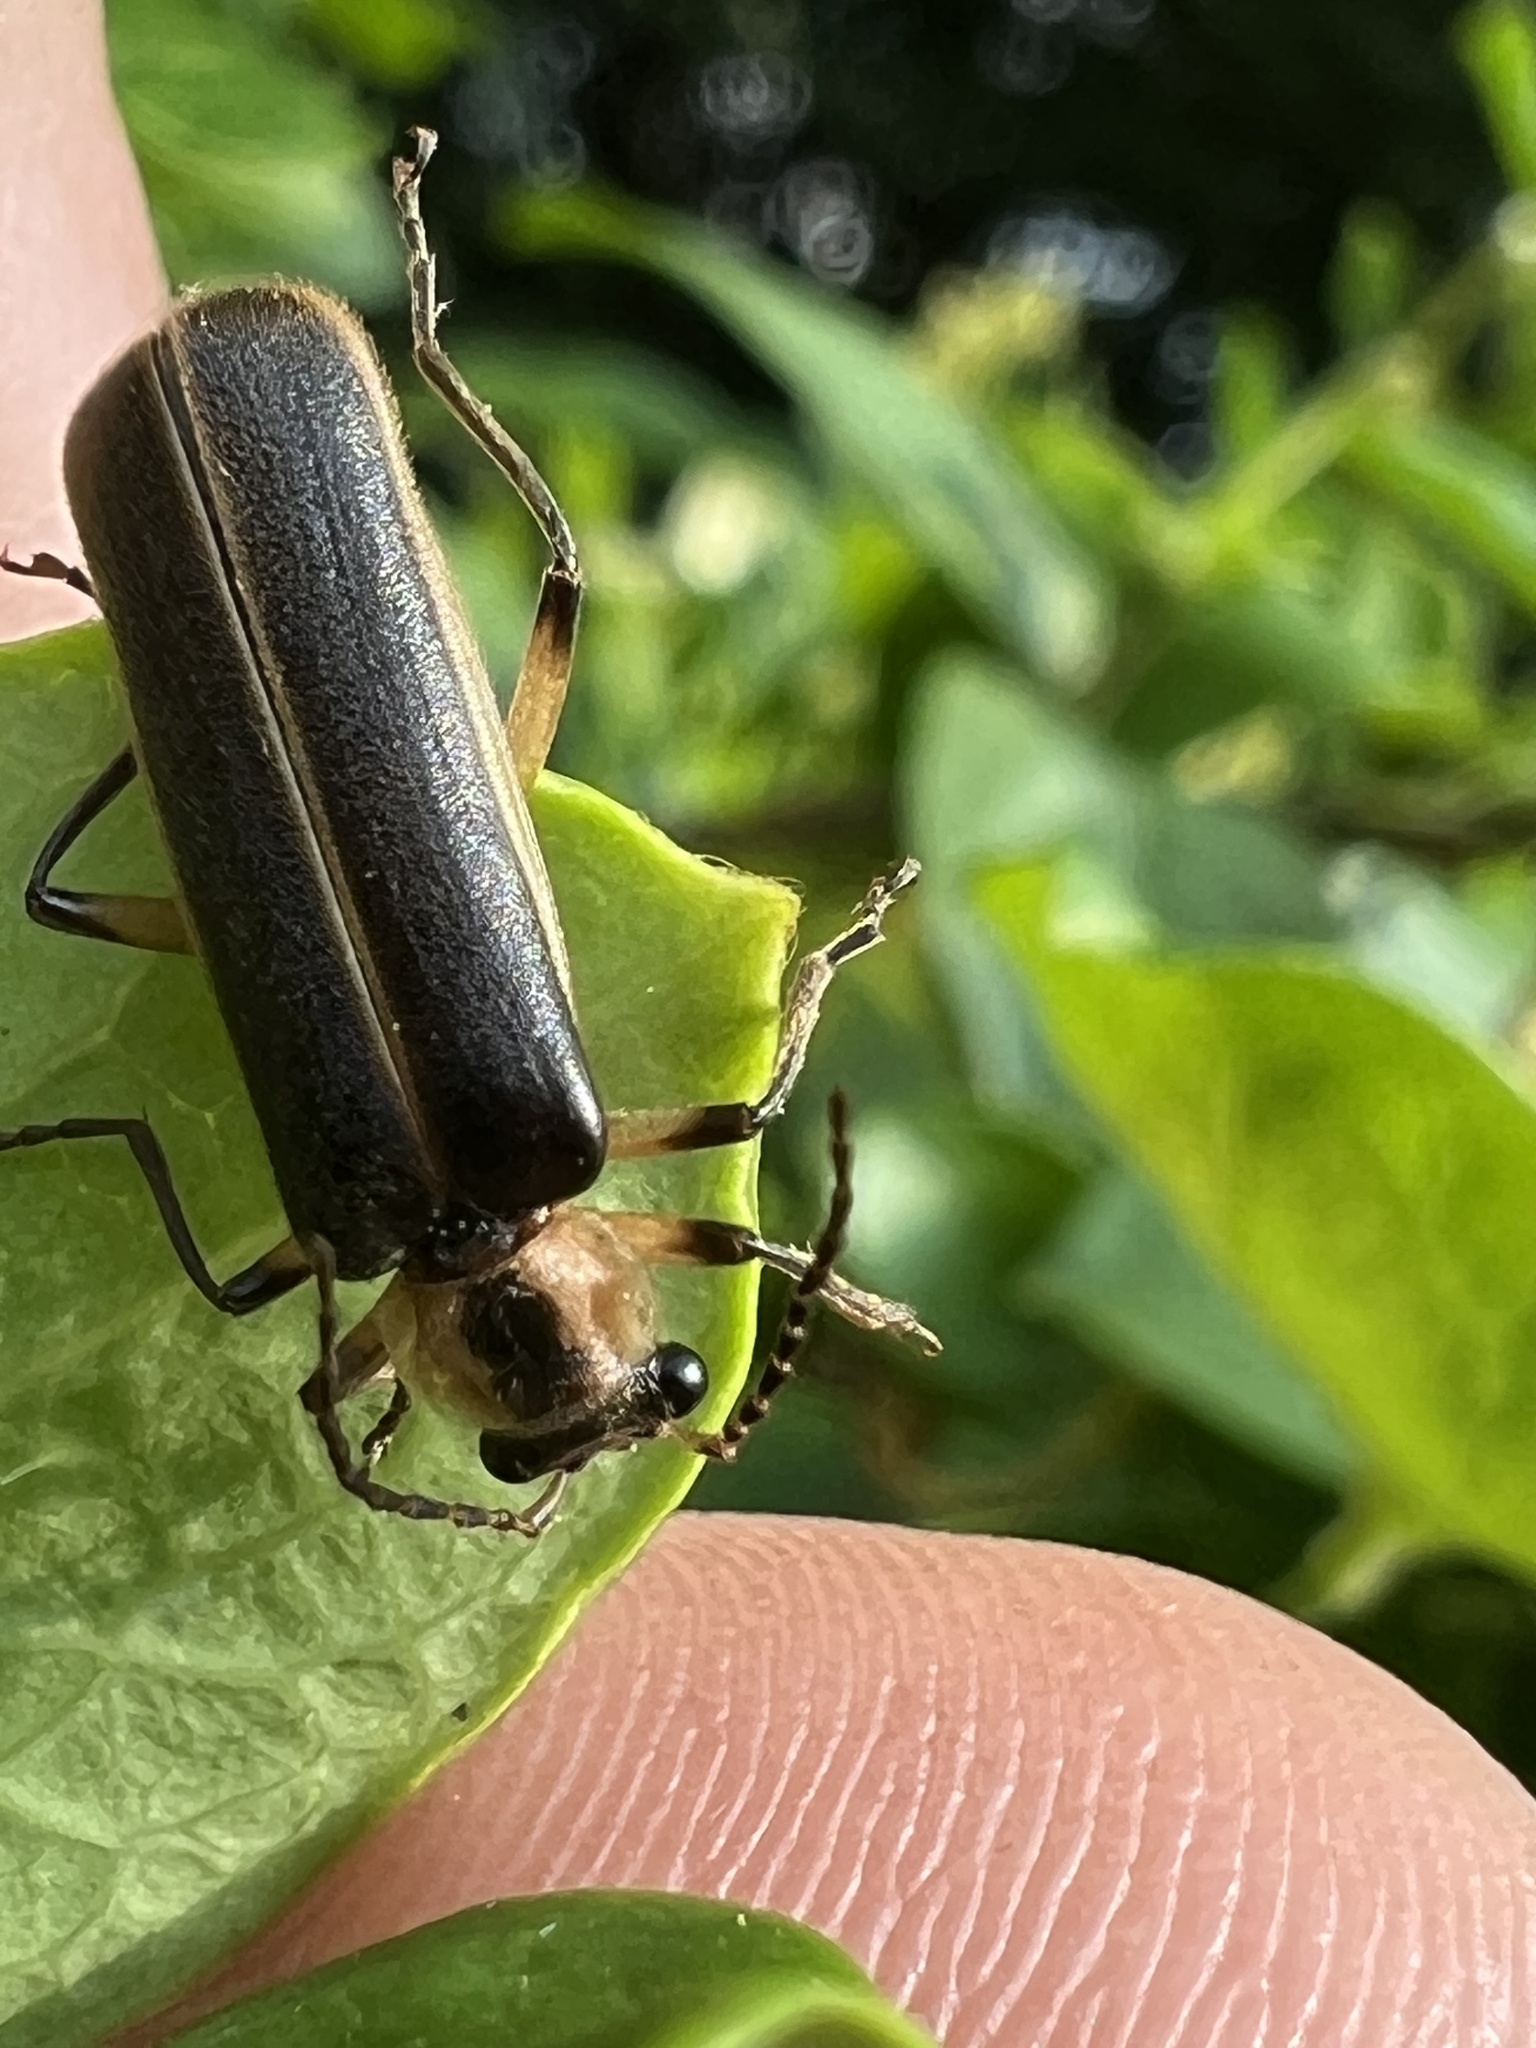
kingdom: Animalia
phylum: Arthropoda
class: Insecta
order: Coleoptera
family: Cantharidae
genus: Podabrus
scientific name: Podabrus basilaris
